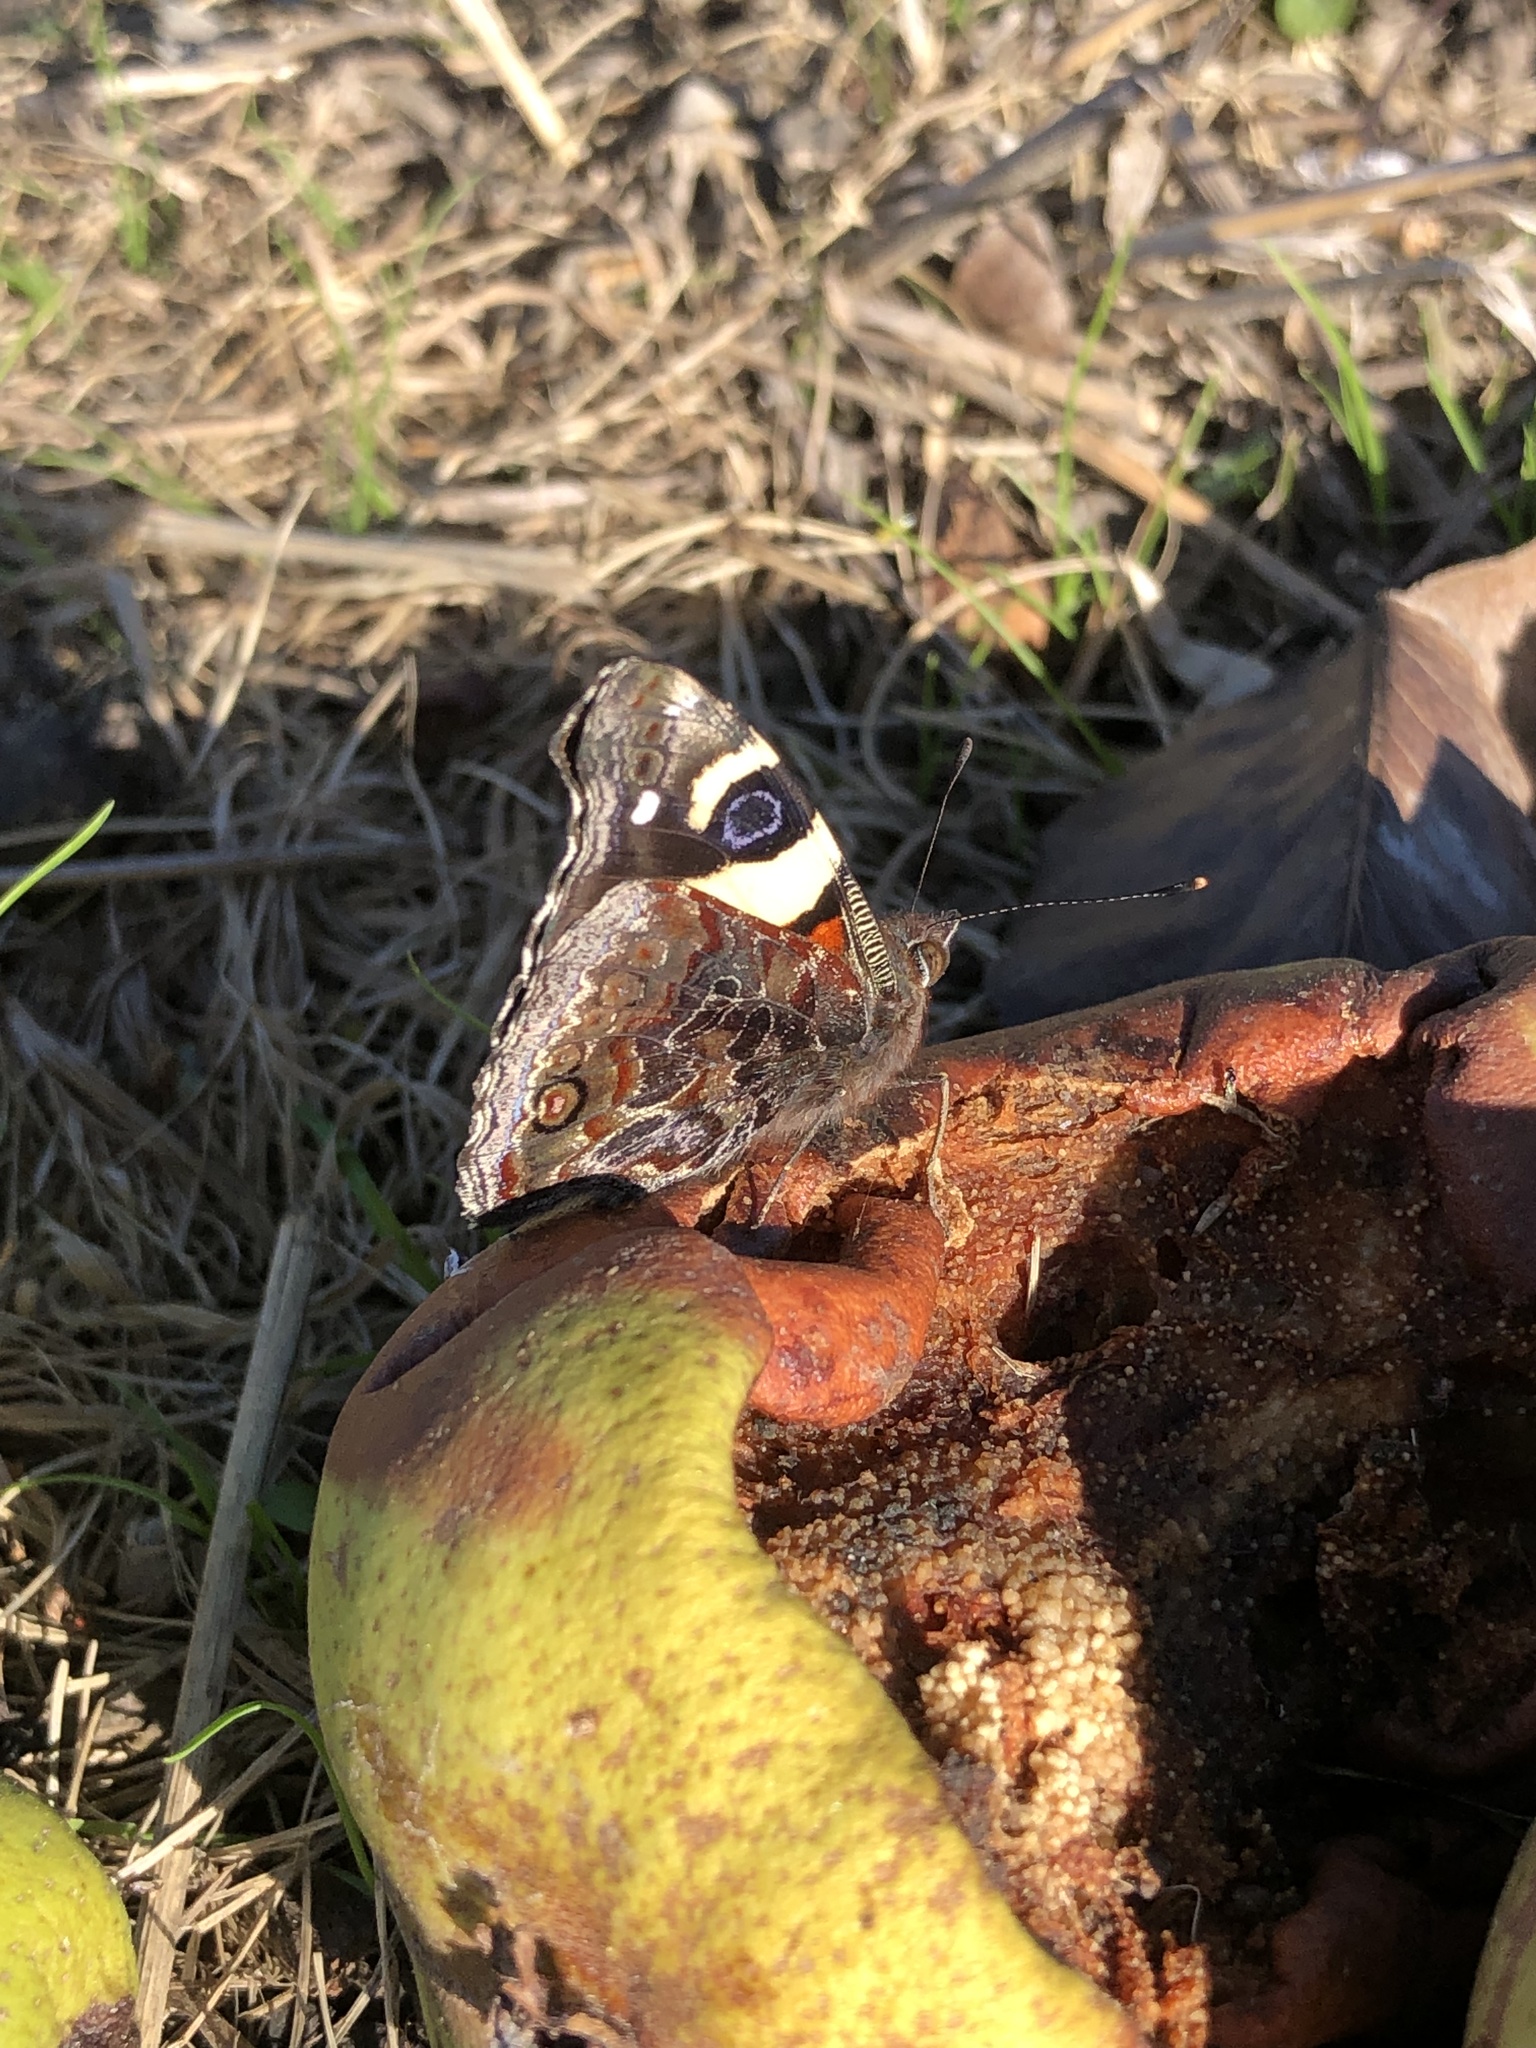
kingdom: Animalia
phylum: Arthropoda
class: Insecta
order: Lepidoptera
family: Nymphalidae
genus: Vanessa
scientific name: Vanessa itea
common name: Yellow admiral
